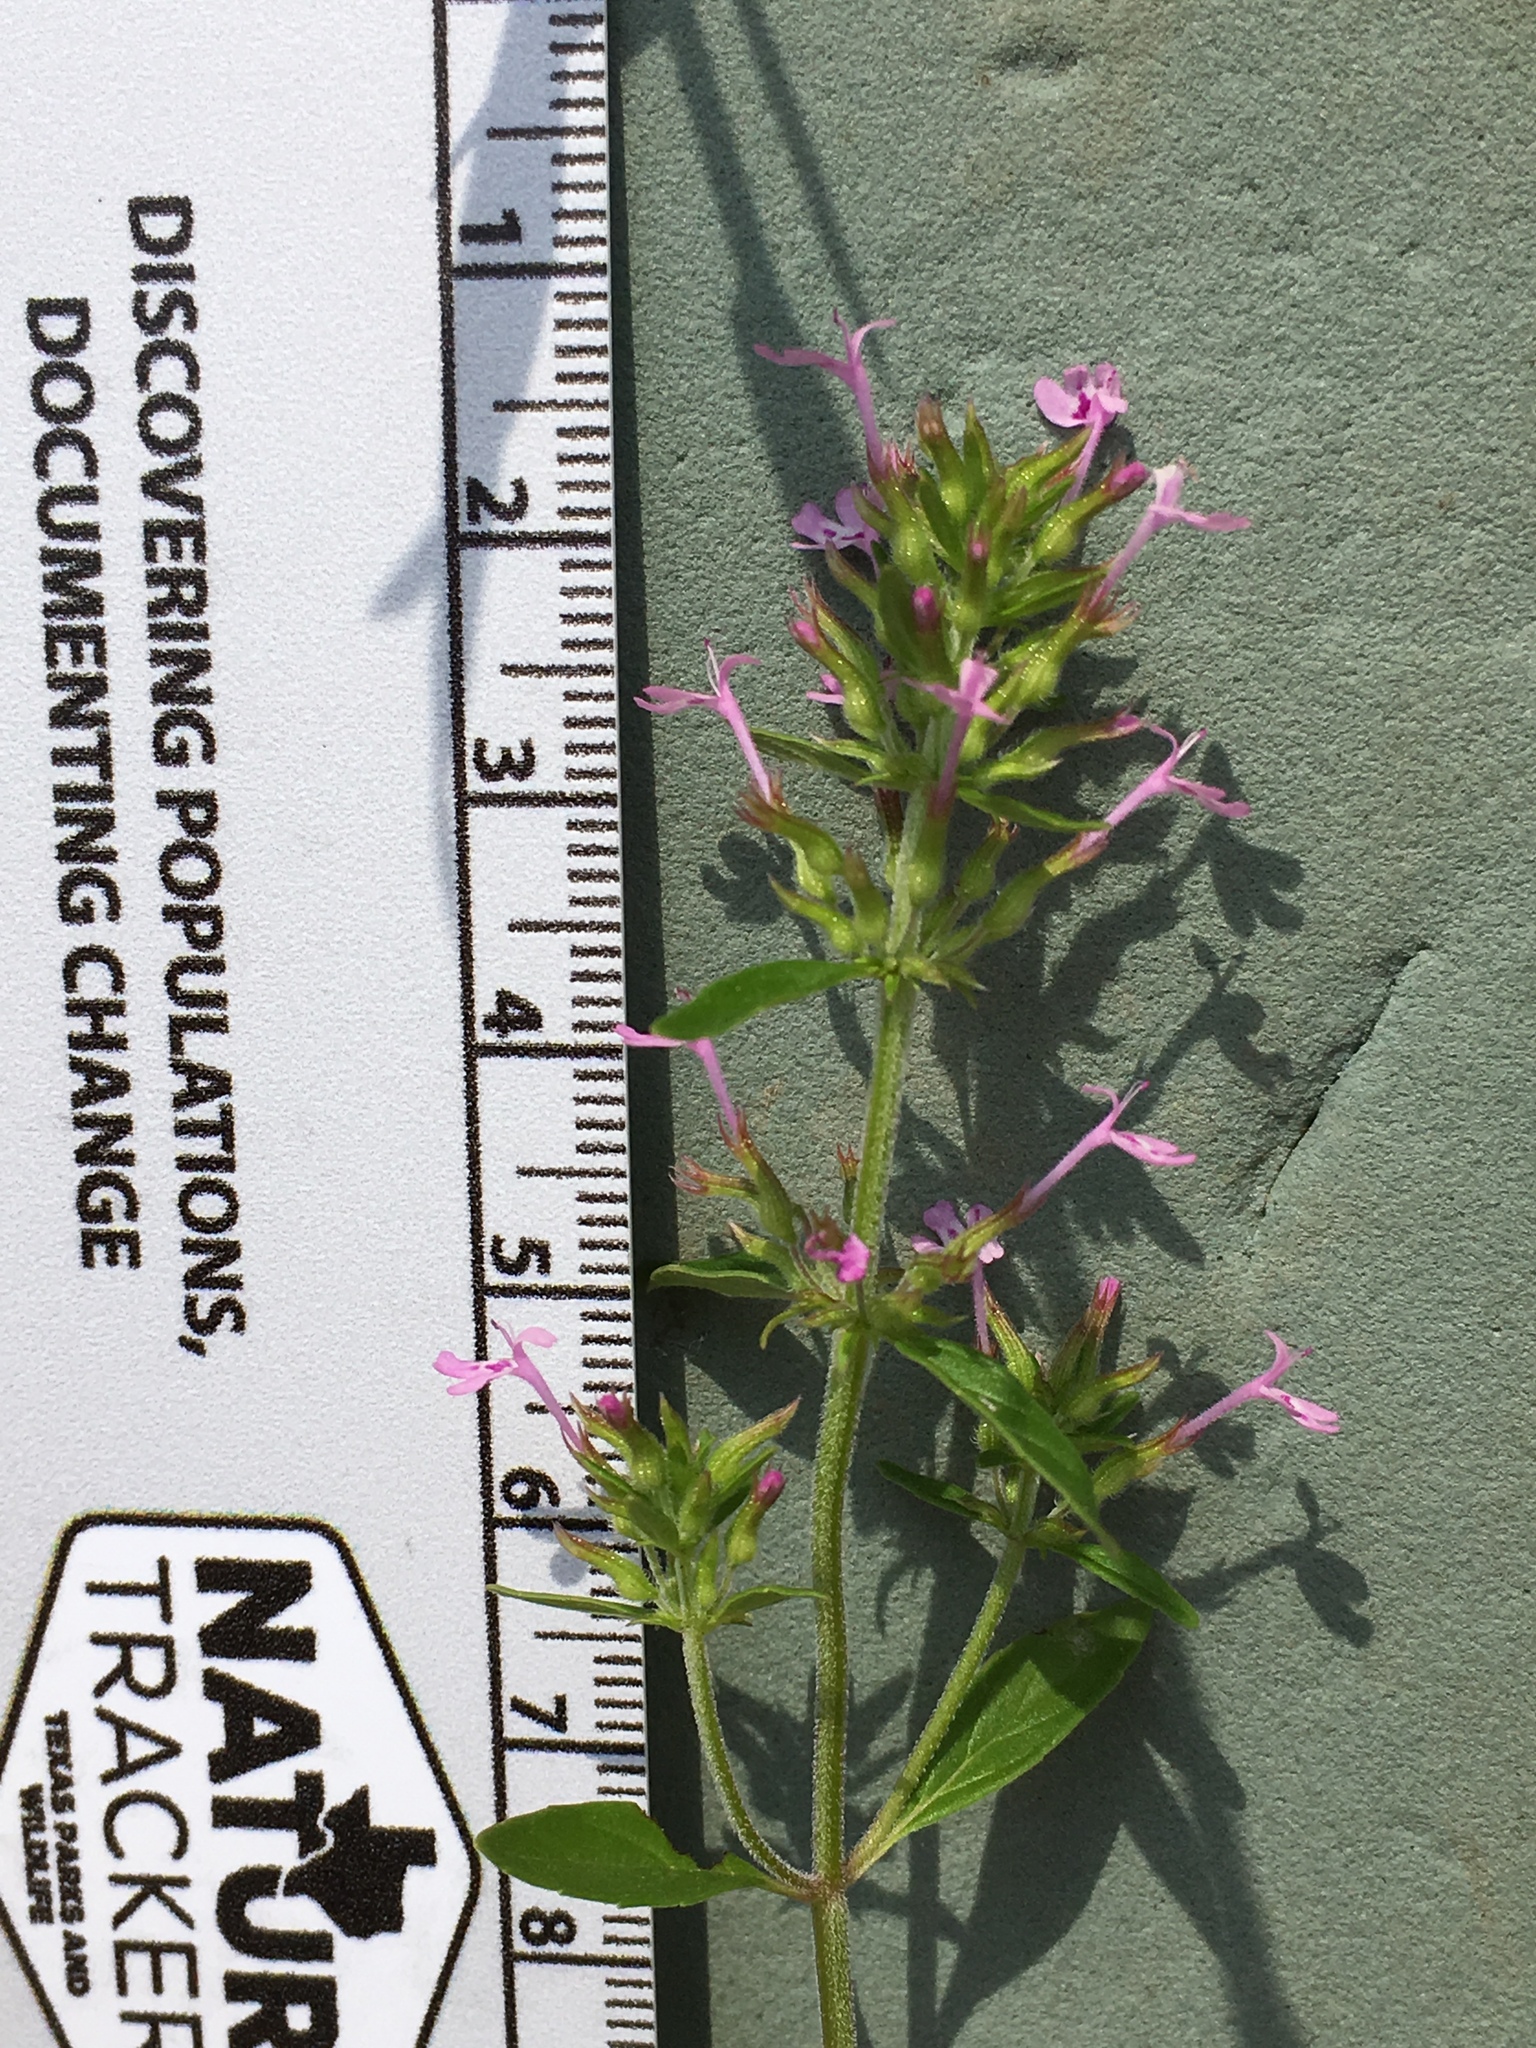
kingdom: Plantae
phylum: Tracheophyta
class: Magnoliopsida
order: Lamiales
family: Lamiaceae
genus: Hedeoma
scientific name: Hedeoma acinoides
